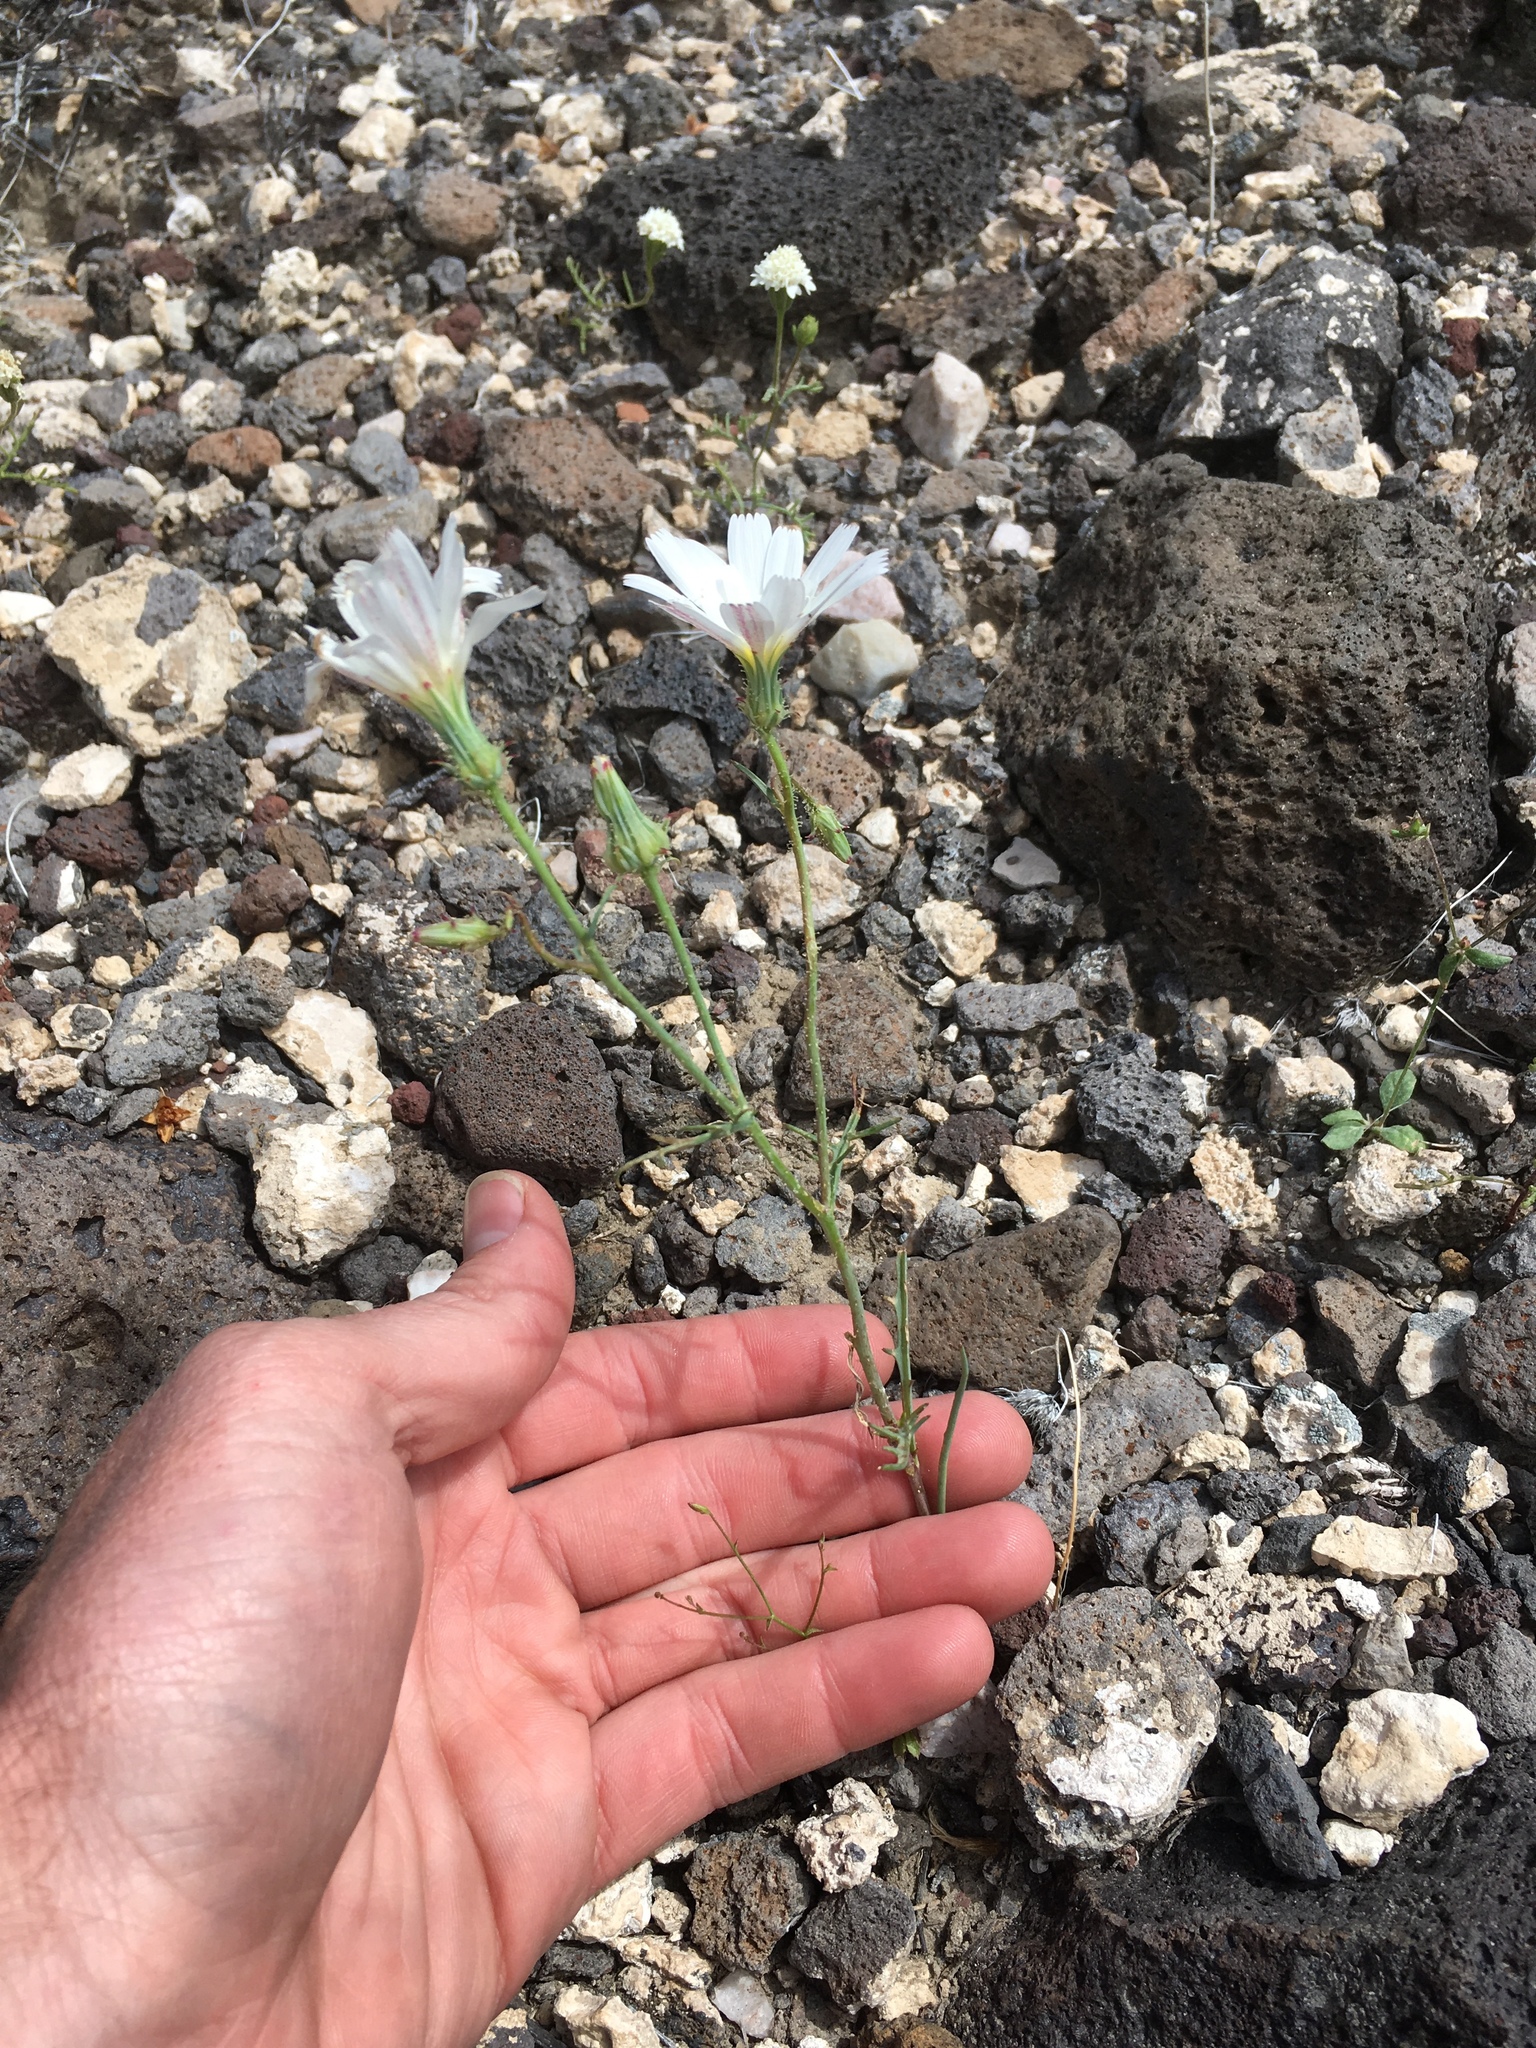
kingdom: Plantae
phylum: Tracheophyta
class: Magnoliopsida
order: Asterales
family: Asteraceae
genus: Calycoseris
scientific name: Calycoseris wrightii
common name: White tackstem
